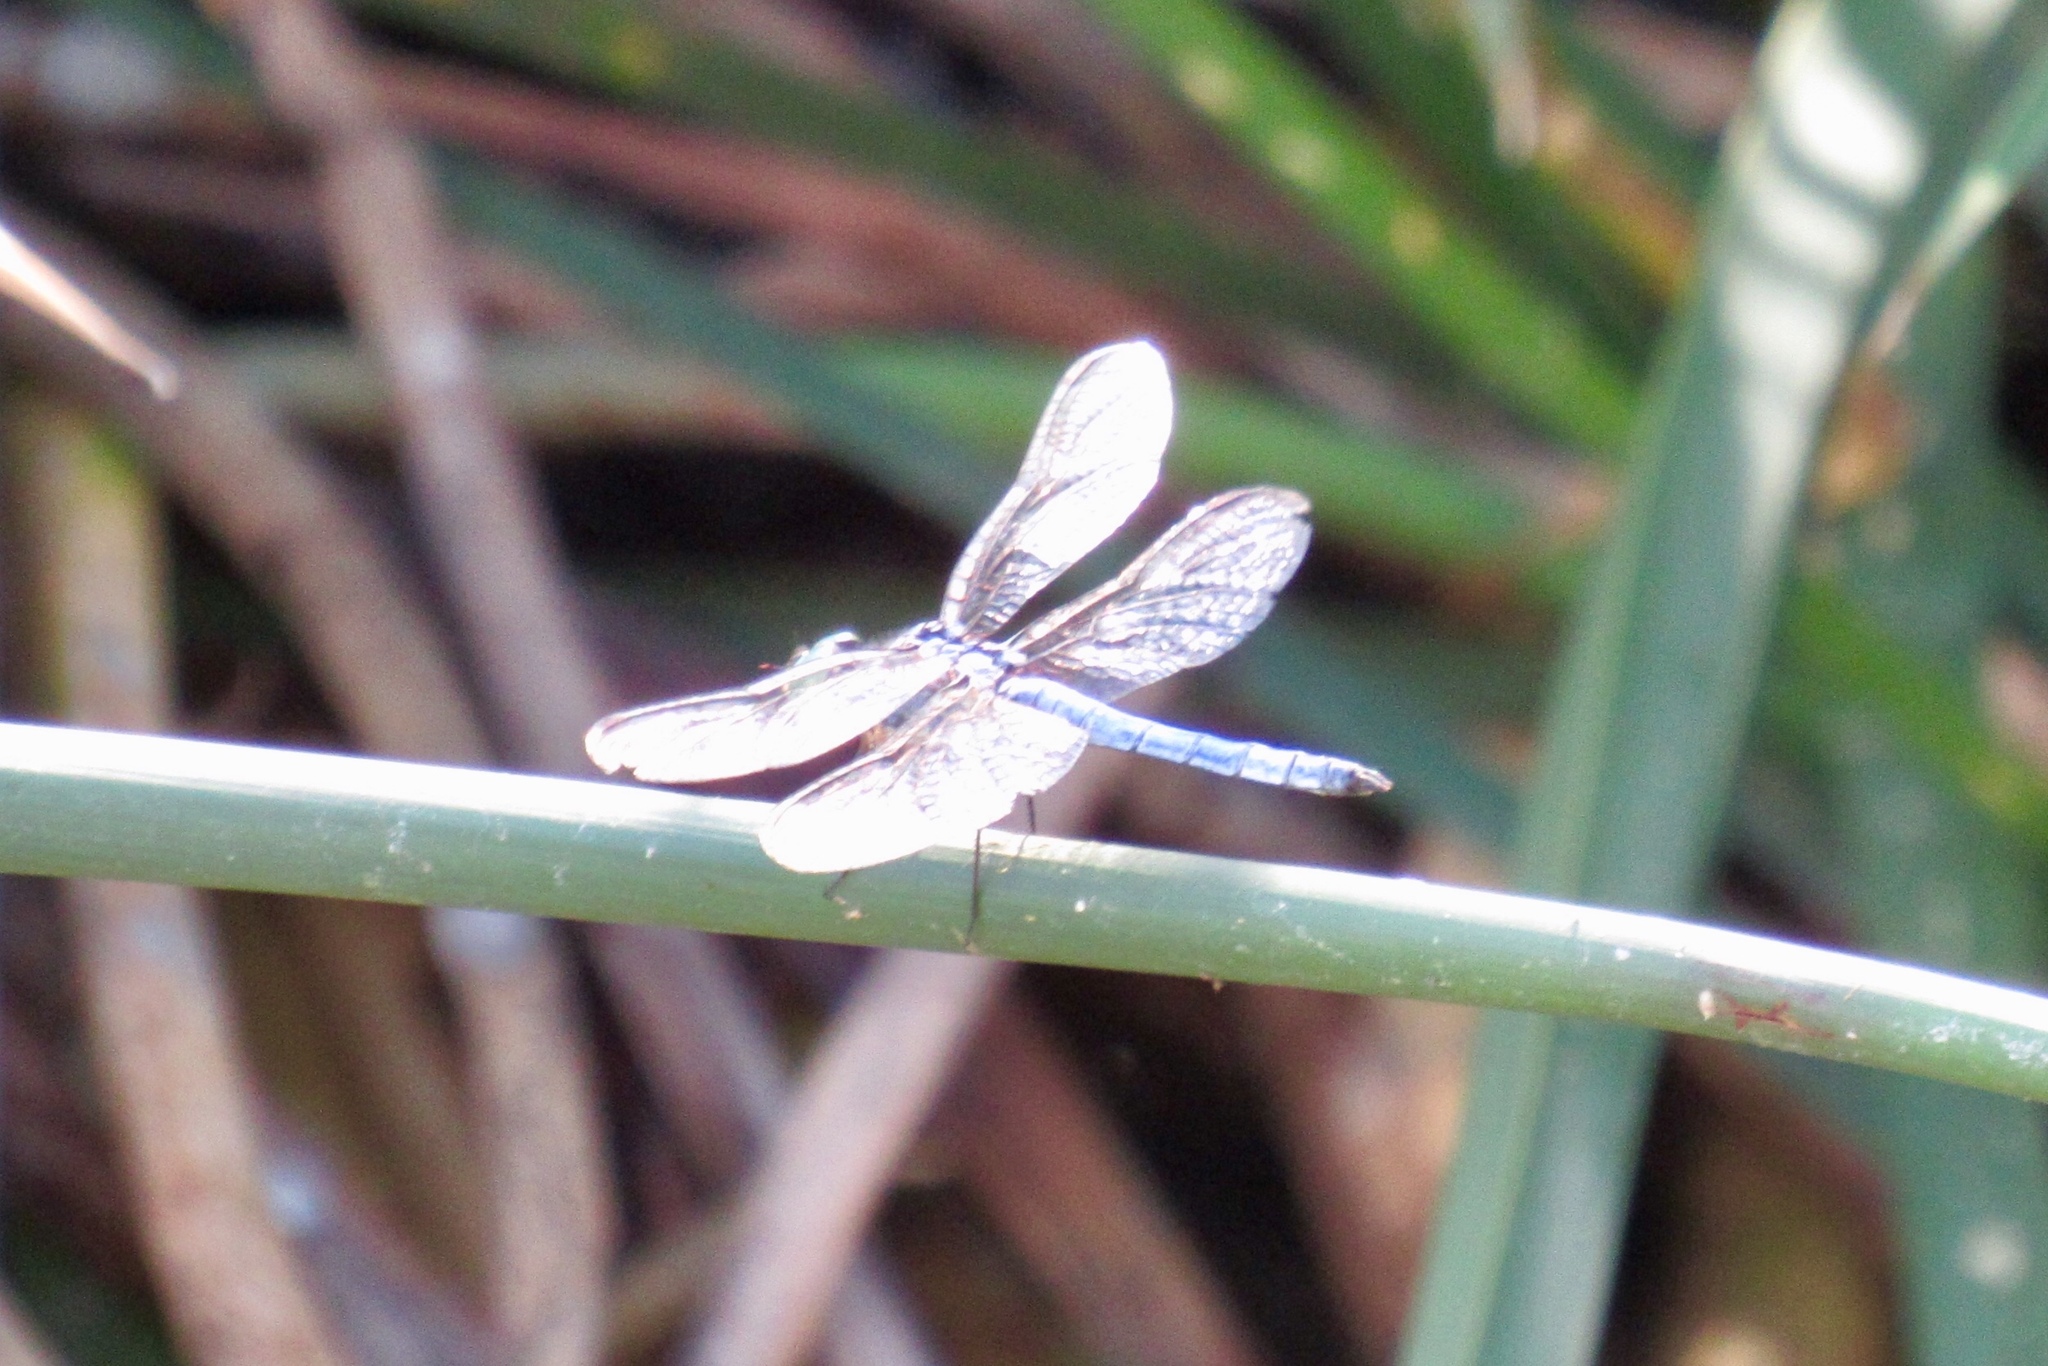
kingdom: Animalia
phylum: Arthropoda
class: Insecta
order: Odonata
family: Libellulidae
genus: Pachydiplax
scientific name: Pachydiplax longipennis
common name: Blue dasher
